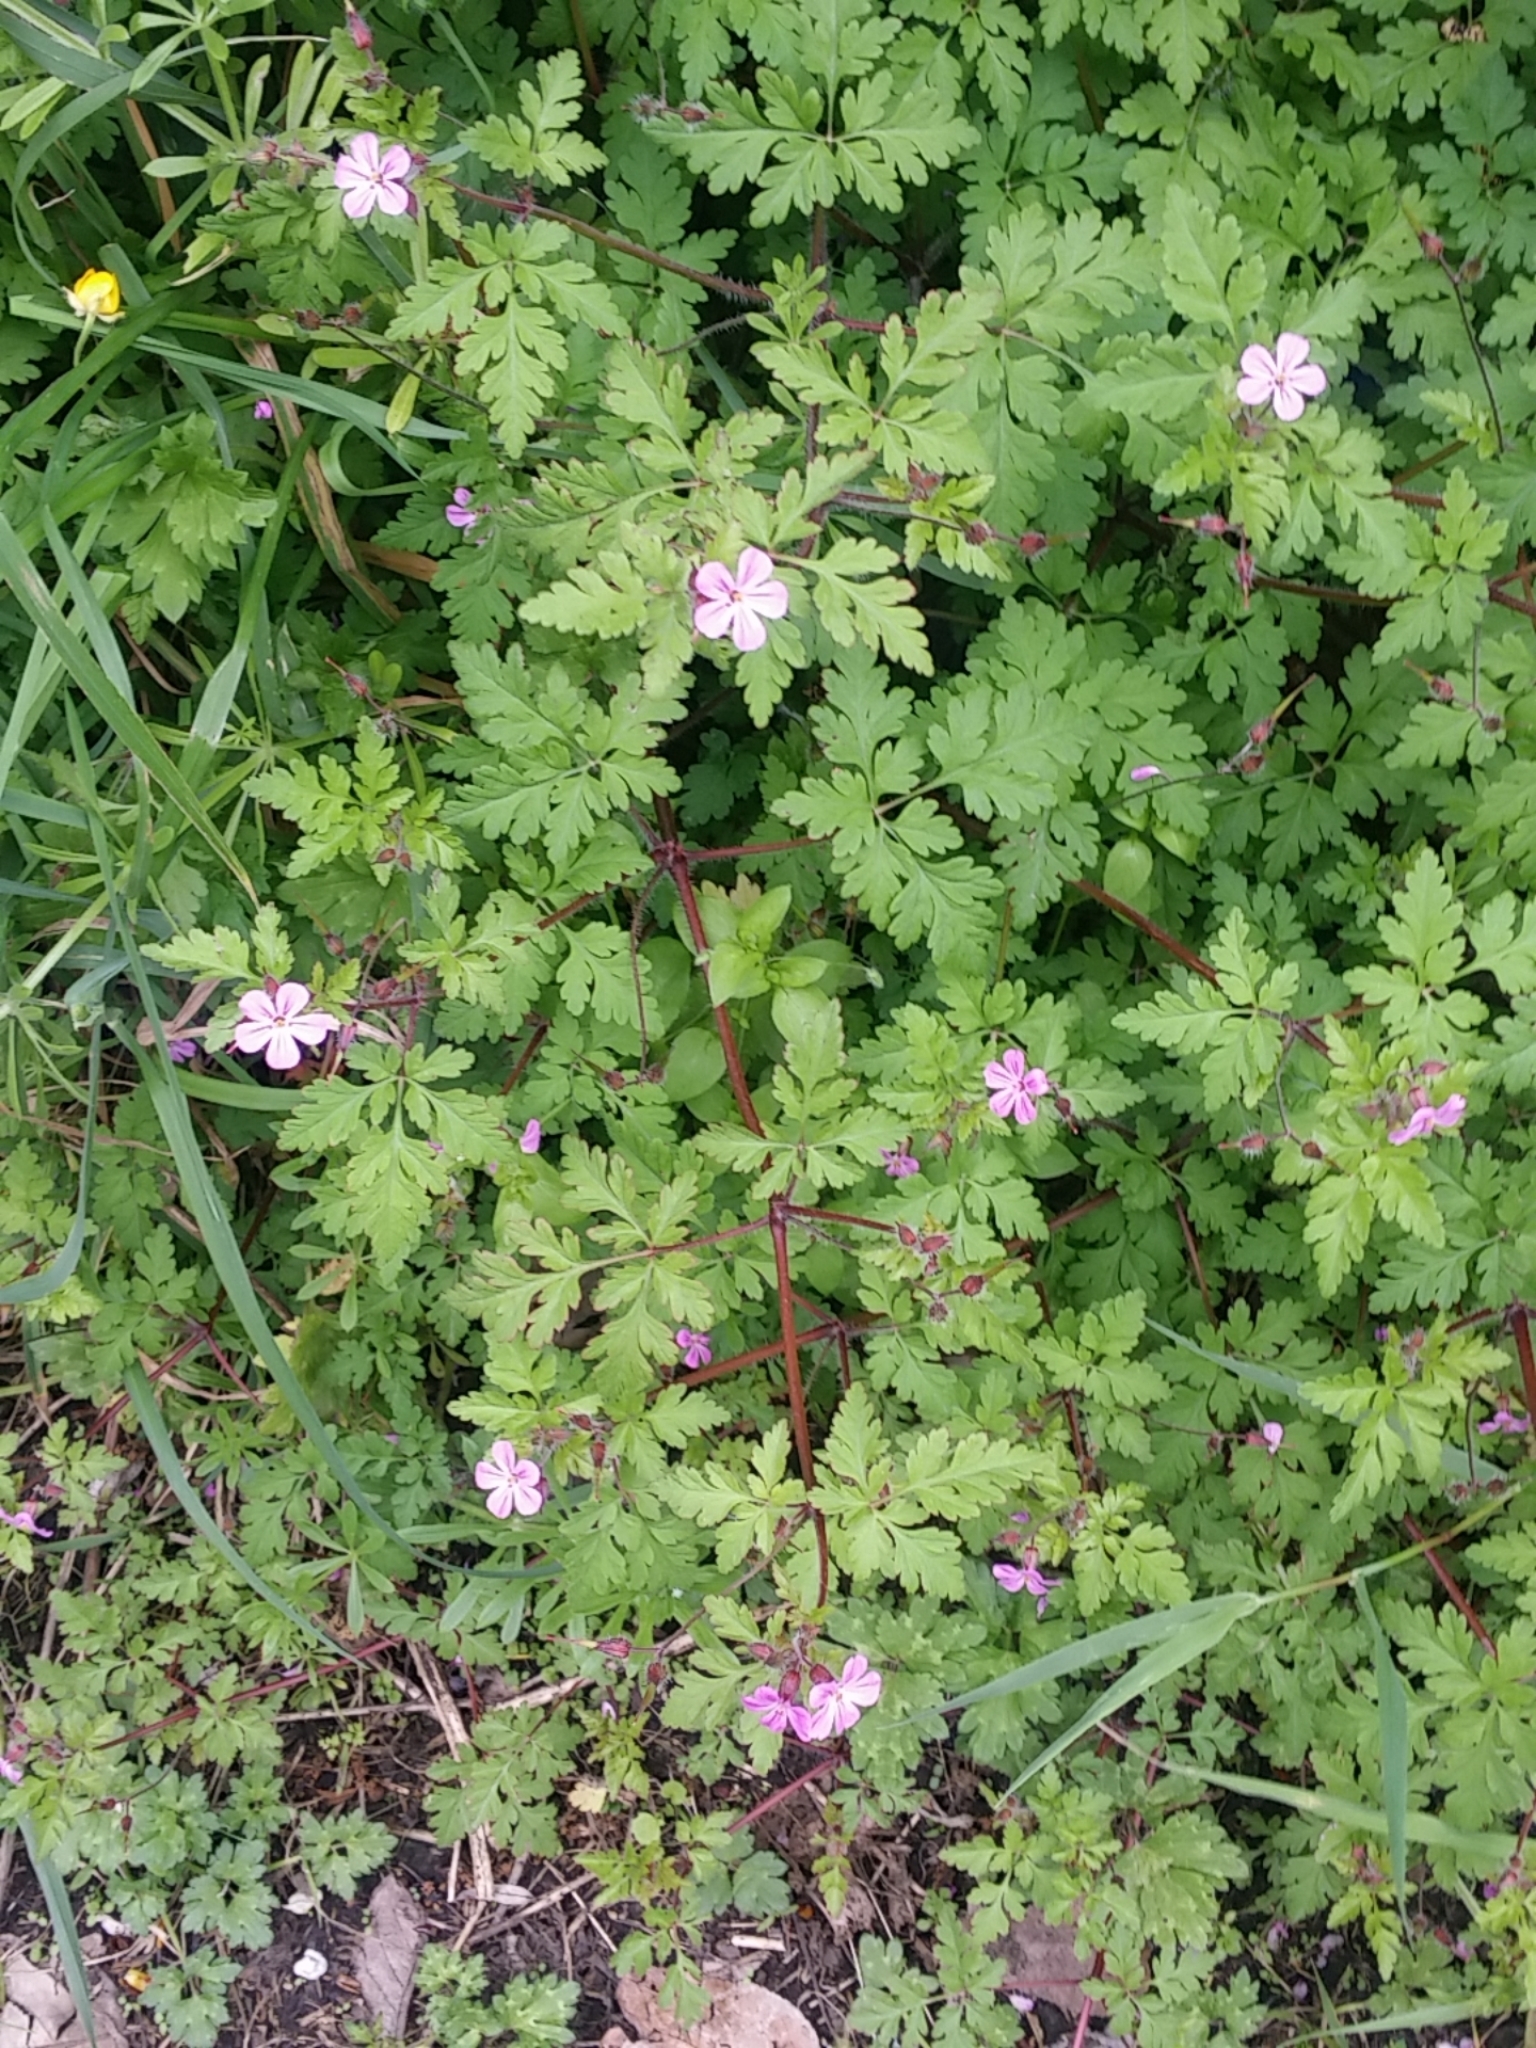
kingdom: Plantae
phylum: Tracheophyta
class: Magnoliopsida
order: Geraniales
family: Geraniaceae
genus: Geranium
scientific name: Geranium robertianum
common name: Herb-robert
